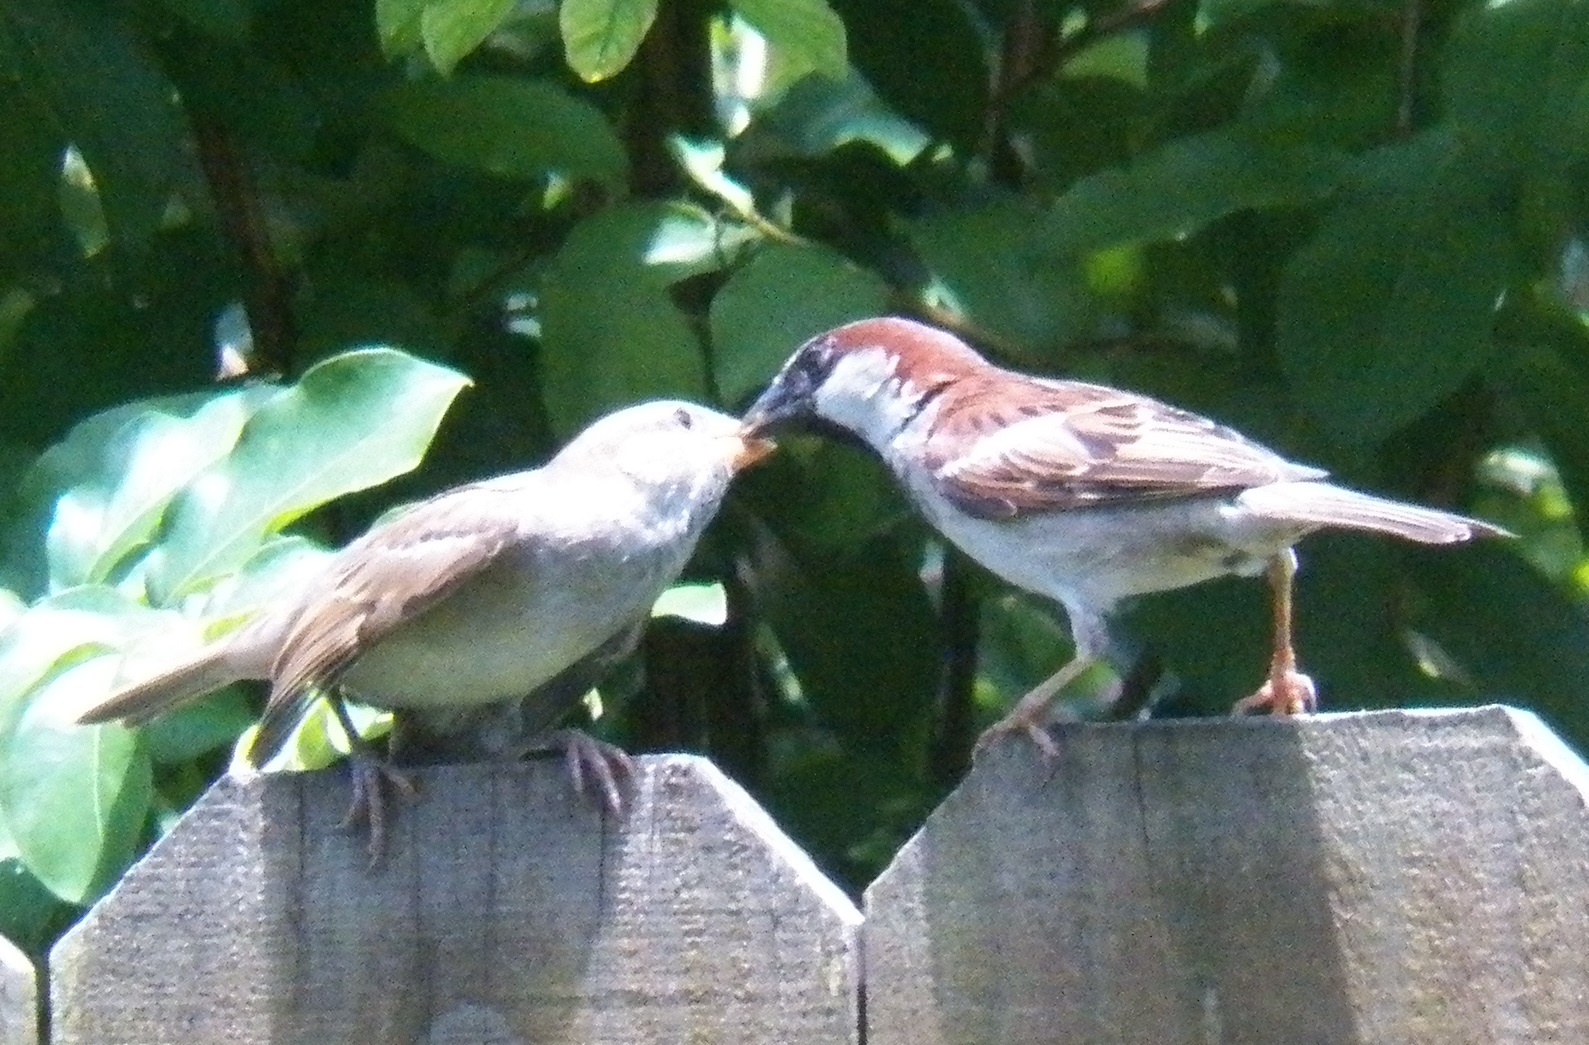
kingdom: Animalia
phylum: Chordata
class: Aves
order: Passeriformes
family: Passeridae
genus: Passer
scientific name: Passer domesticus
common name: House sparrow
